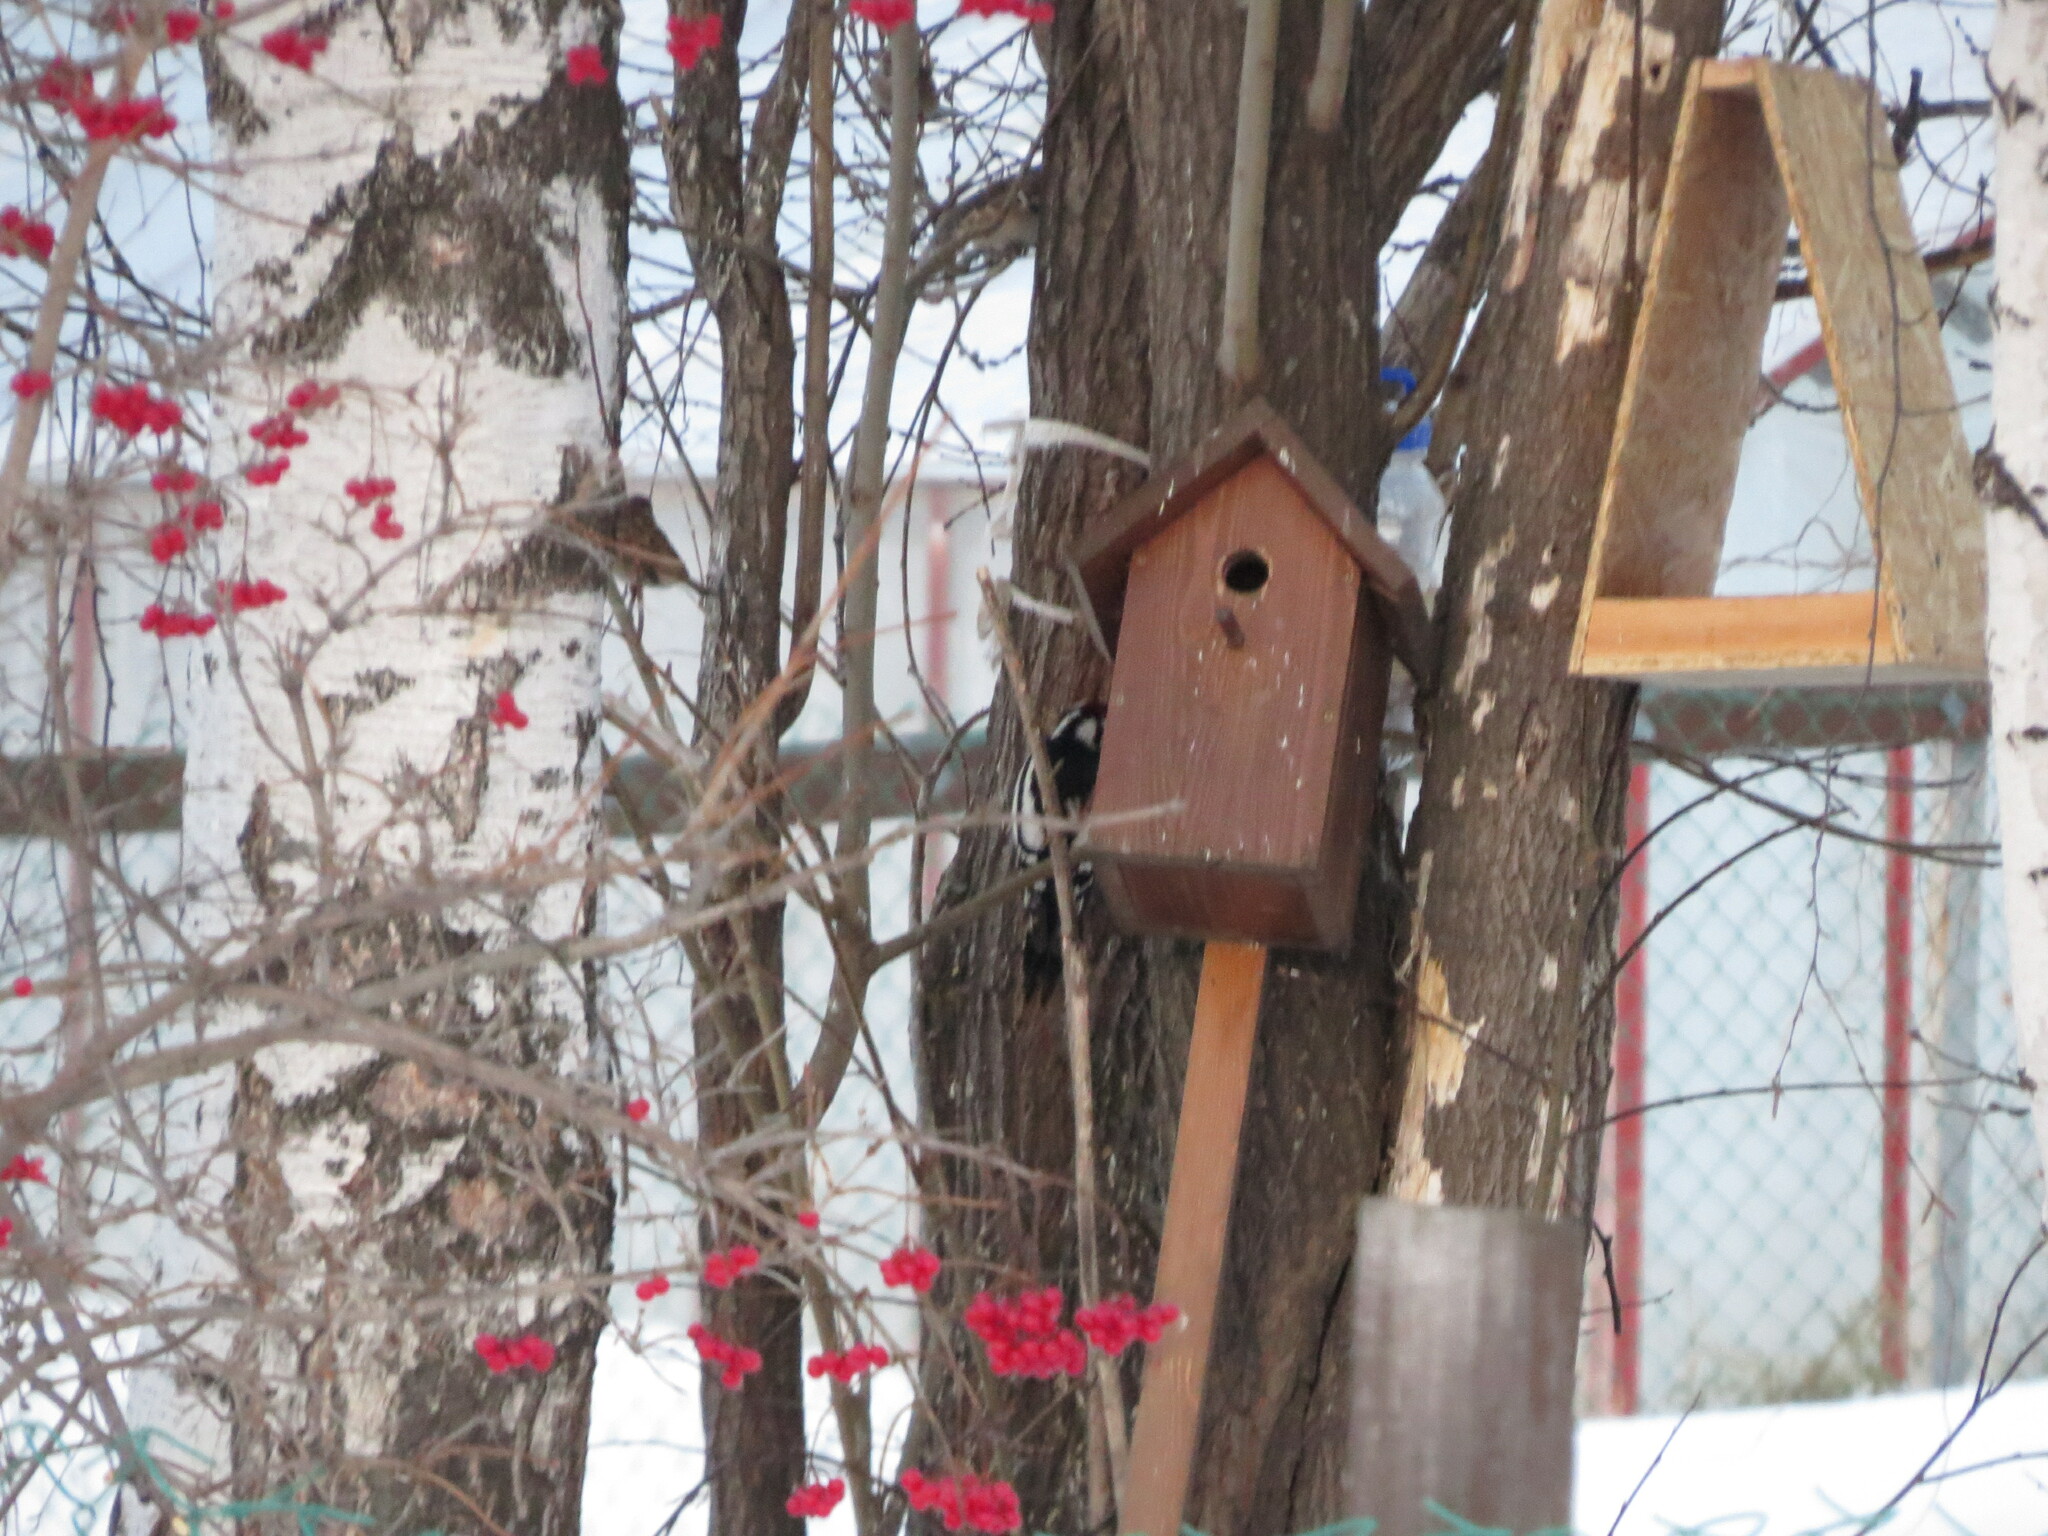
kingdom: Animalia
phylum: Chordata
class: Aves
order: Piciformes
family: Picidae
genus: Dendrocopos
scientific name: Dendrocopos major
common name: Great spotted woodpecker
